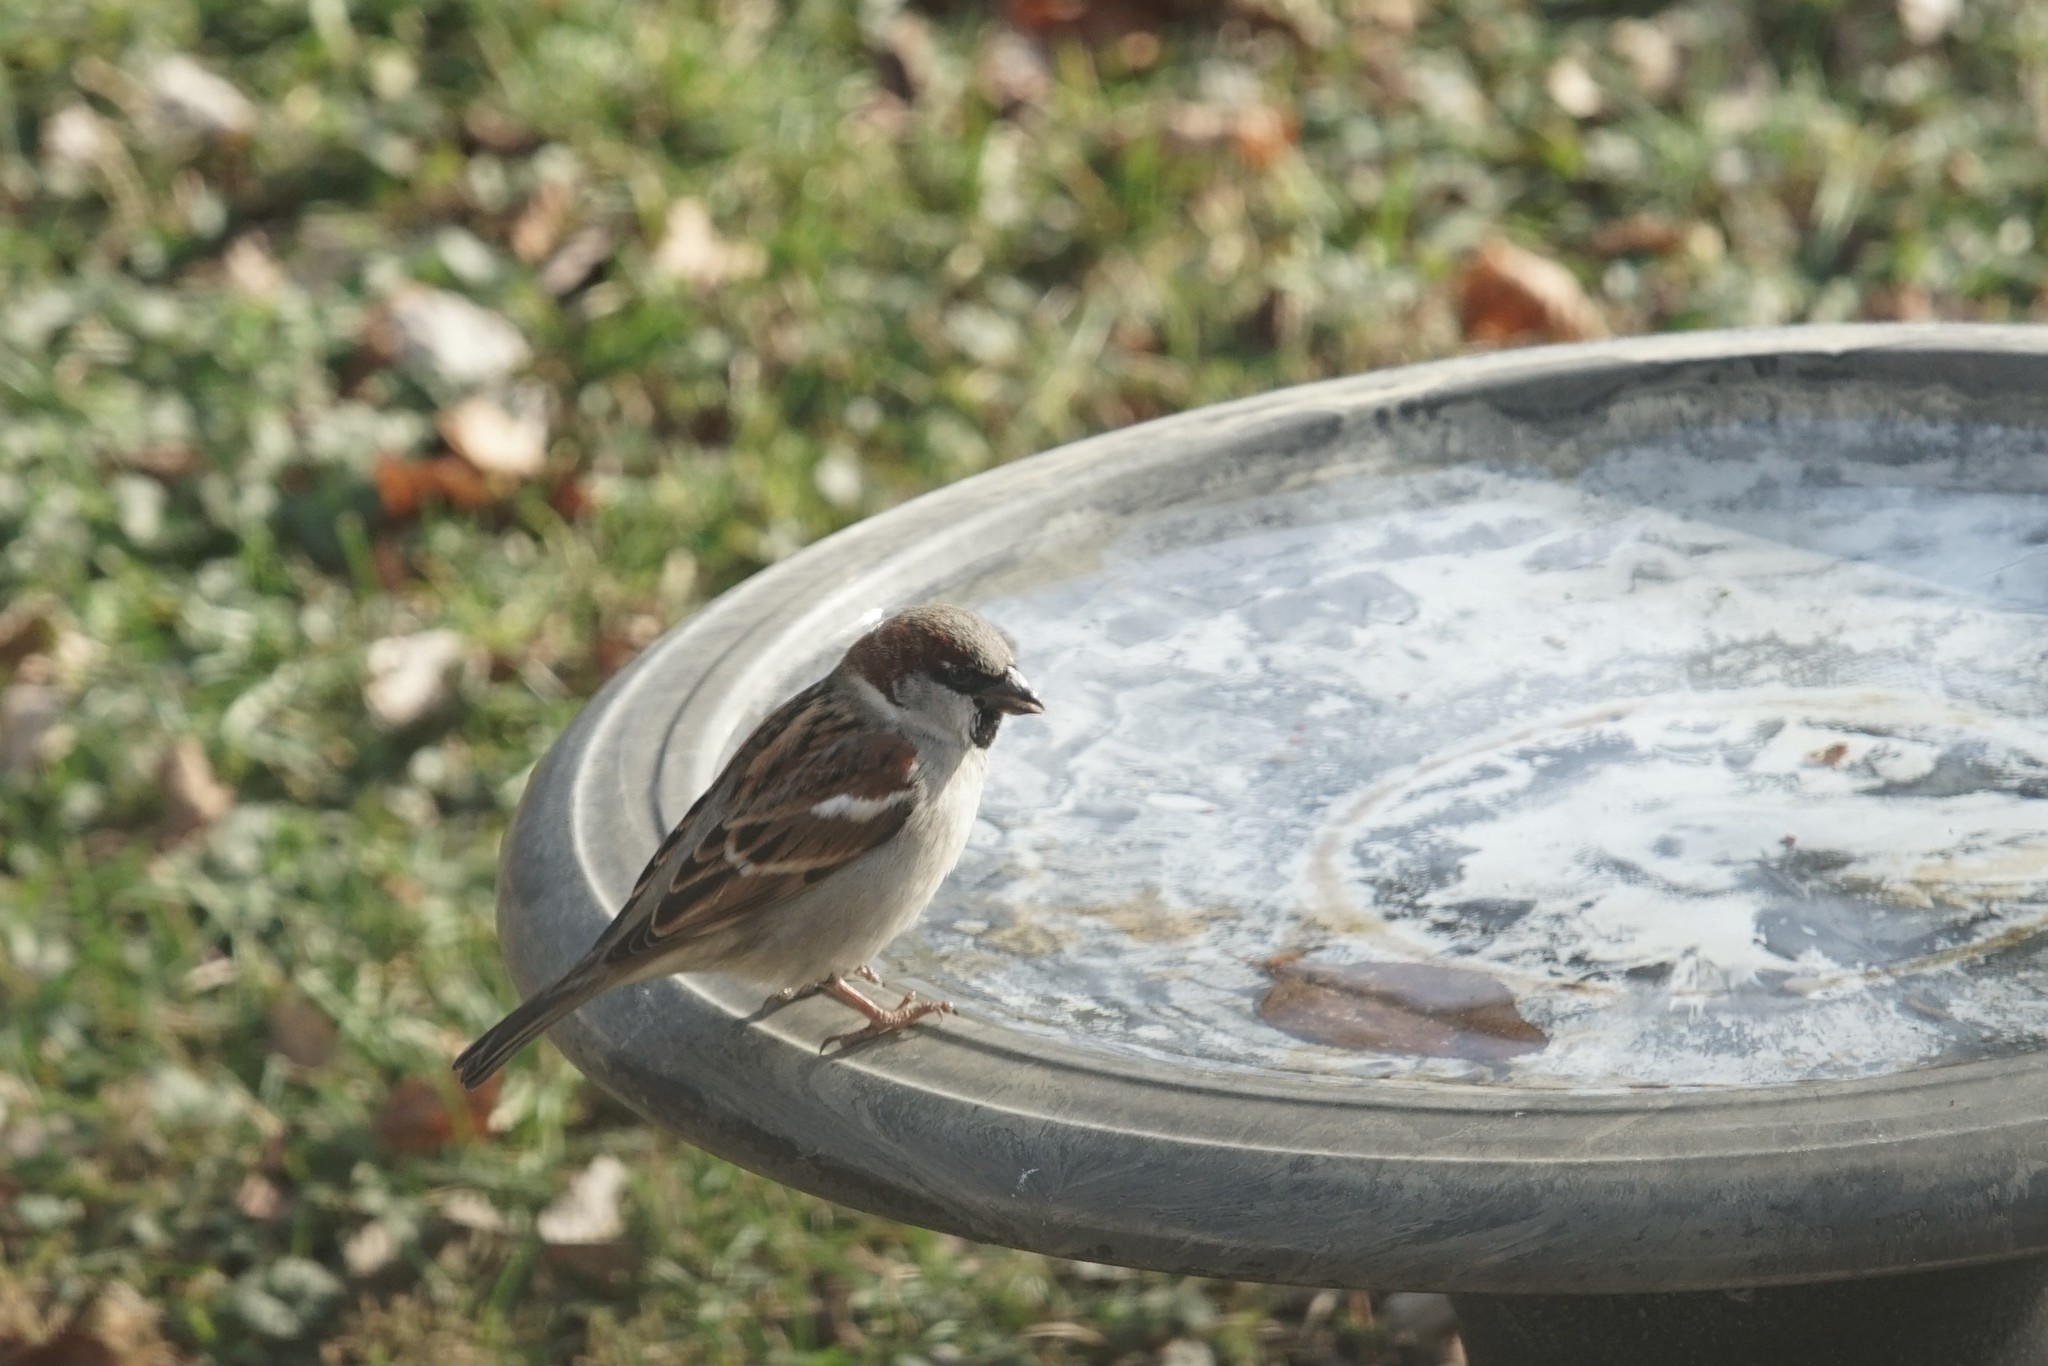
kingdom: Animalia
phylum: Chordata
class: Aves
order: Passeriformes
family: Passeridae
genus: Passer
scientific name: Passer domesticus
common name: House sparrow
